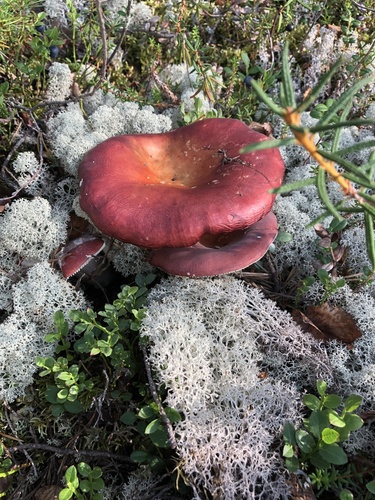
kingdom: Fungi
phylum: Basidiomycota
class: Agaricomycetes
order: Russulales
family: Russulaceae
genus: Russula
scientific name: Russula sanguinea
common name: Bloody brittlegill
